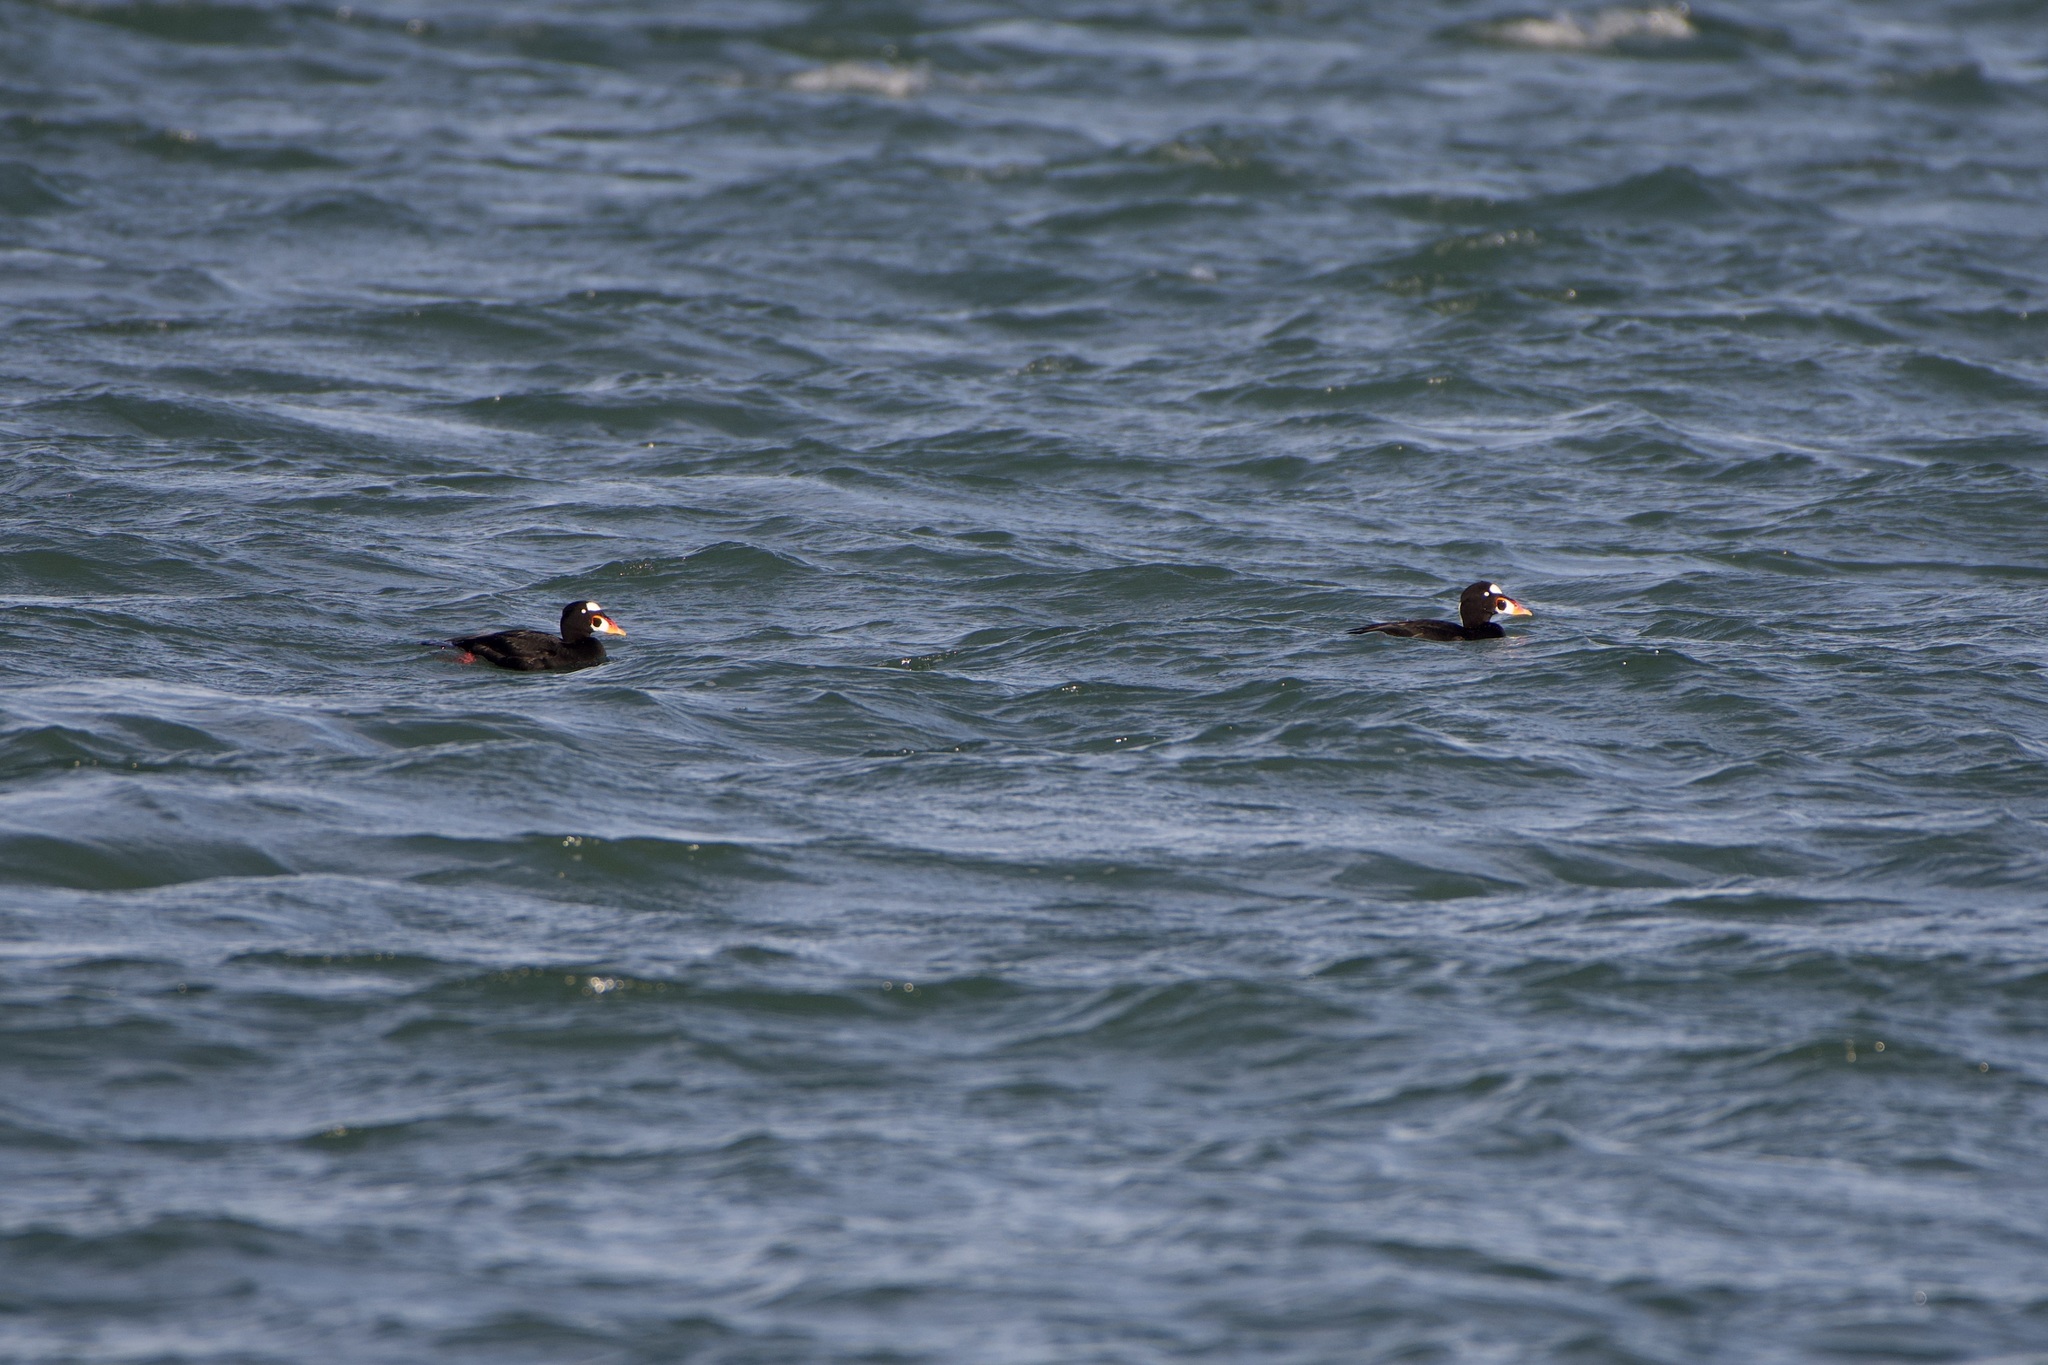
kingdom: Animalia
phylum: Chordata
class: Aves
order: Anseriformes
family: Anatidae
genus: Melanitta
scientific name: Melanitta perspicillata
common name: Surf scoter
